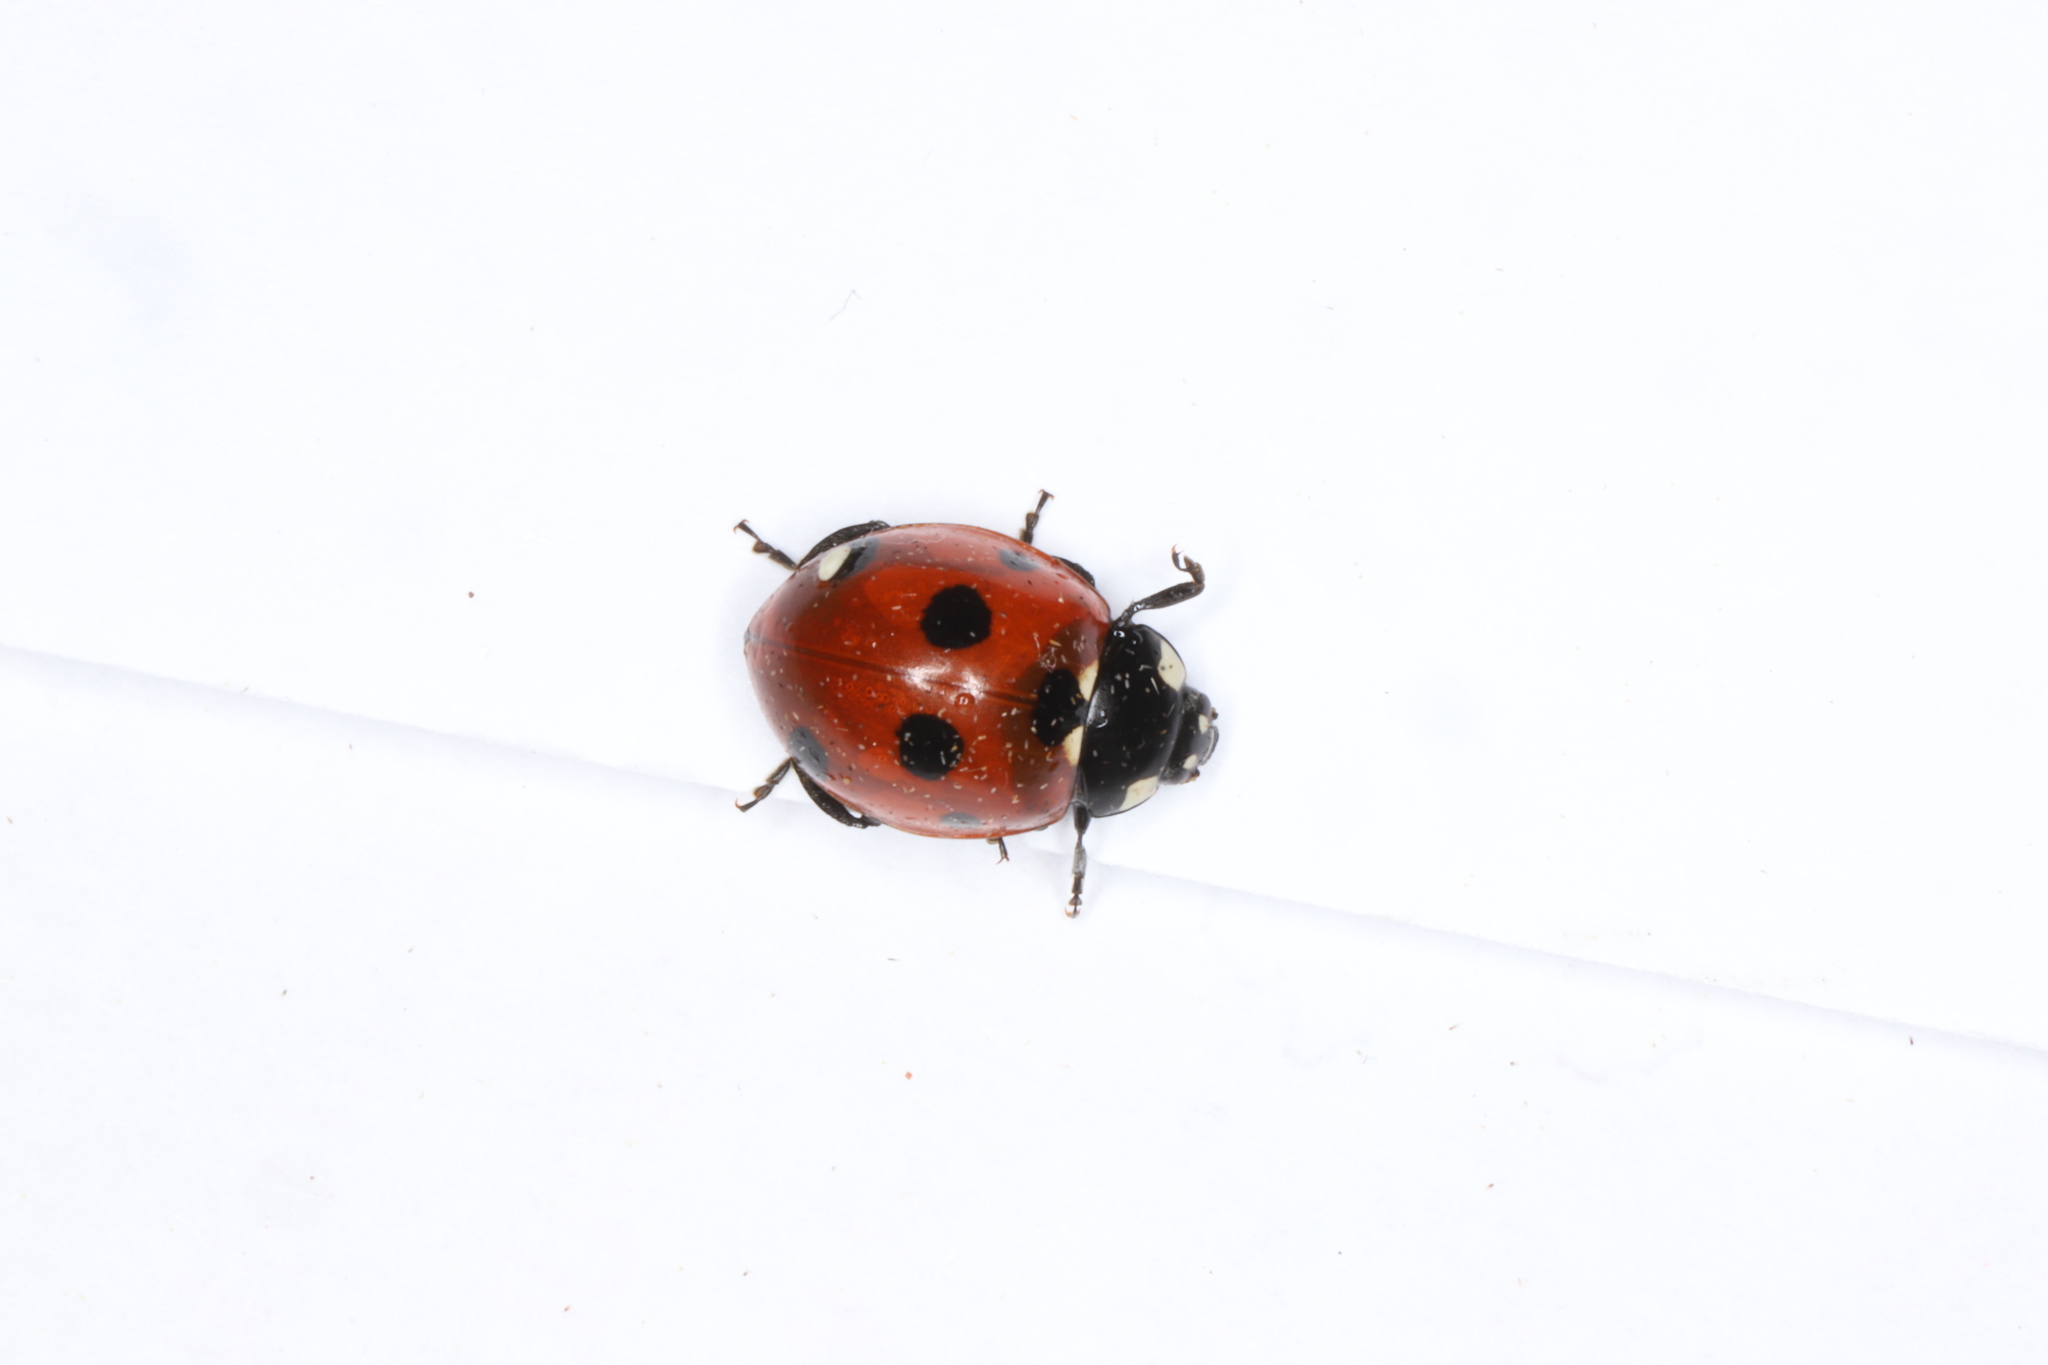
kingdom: Animalia
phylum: Arthropoda
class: Insecta
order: Coleoptera
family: Coccinellidae
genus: Coccinella
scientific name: Coccinella septempunctata
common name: Sevenspotted lady beetle
